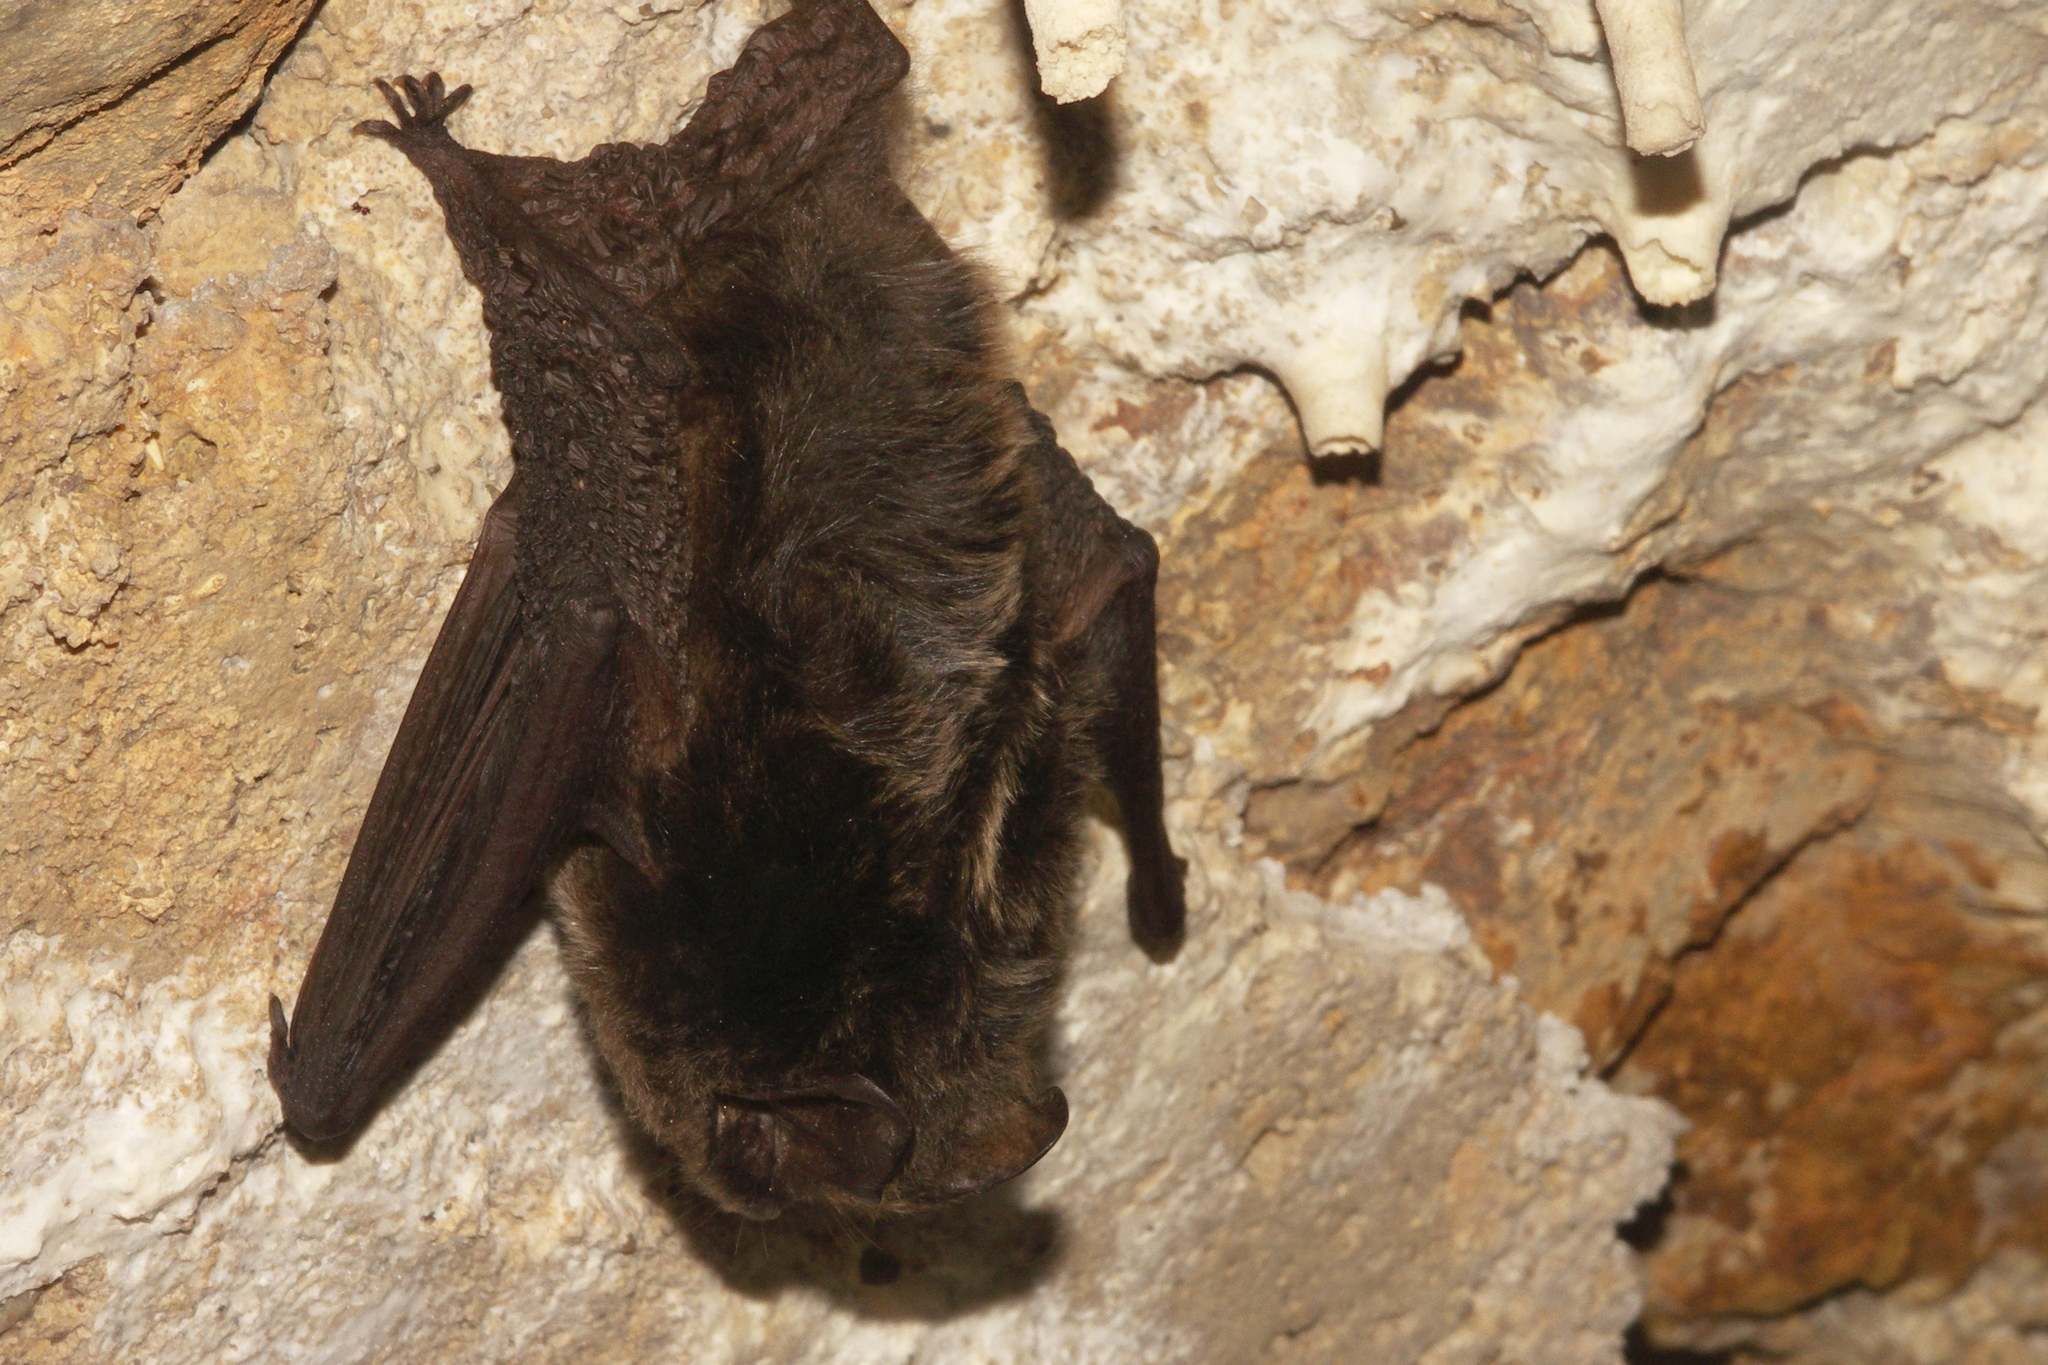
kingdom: Animalia
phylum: Chordata
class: Mammalia
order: Chiroptera
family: Vespertilionidae
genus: Barbastella
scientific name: Barbastella barbastellus
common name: Western barbastelle
